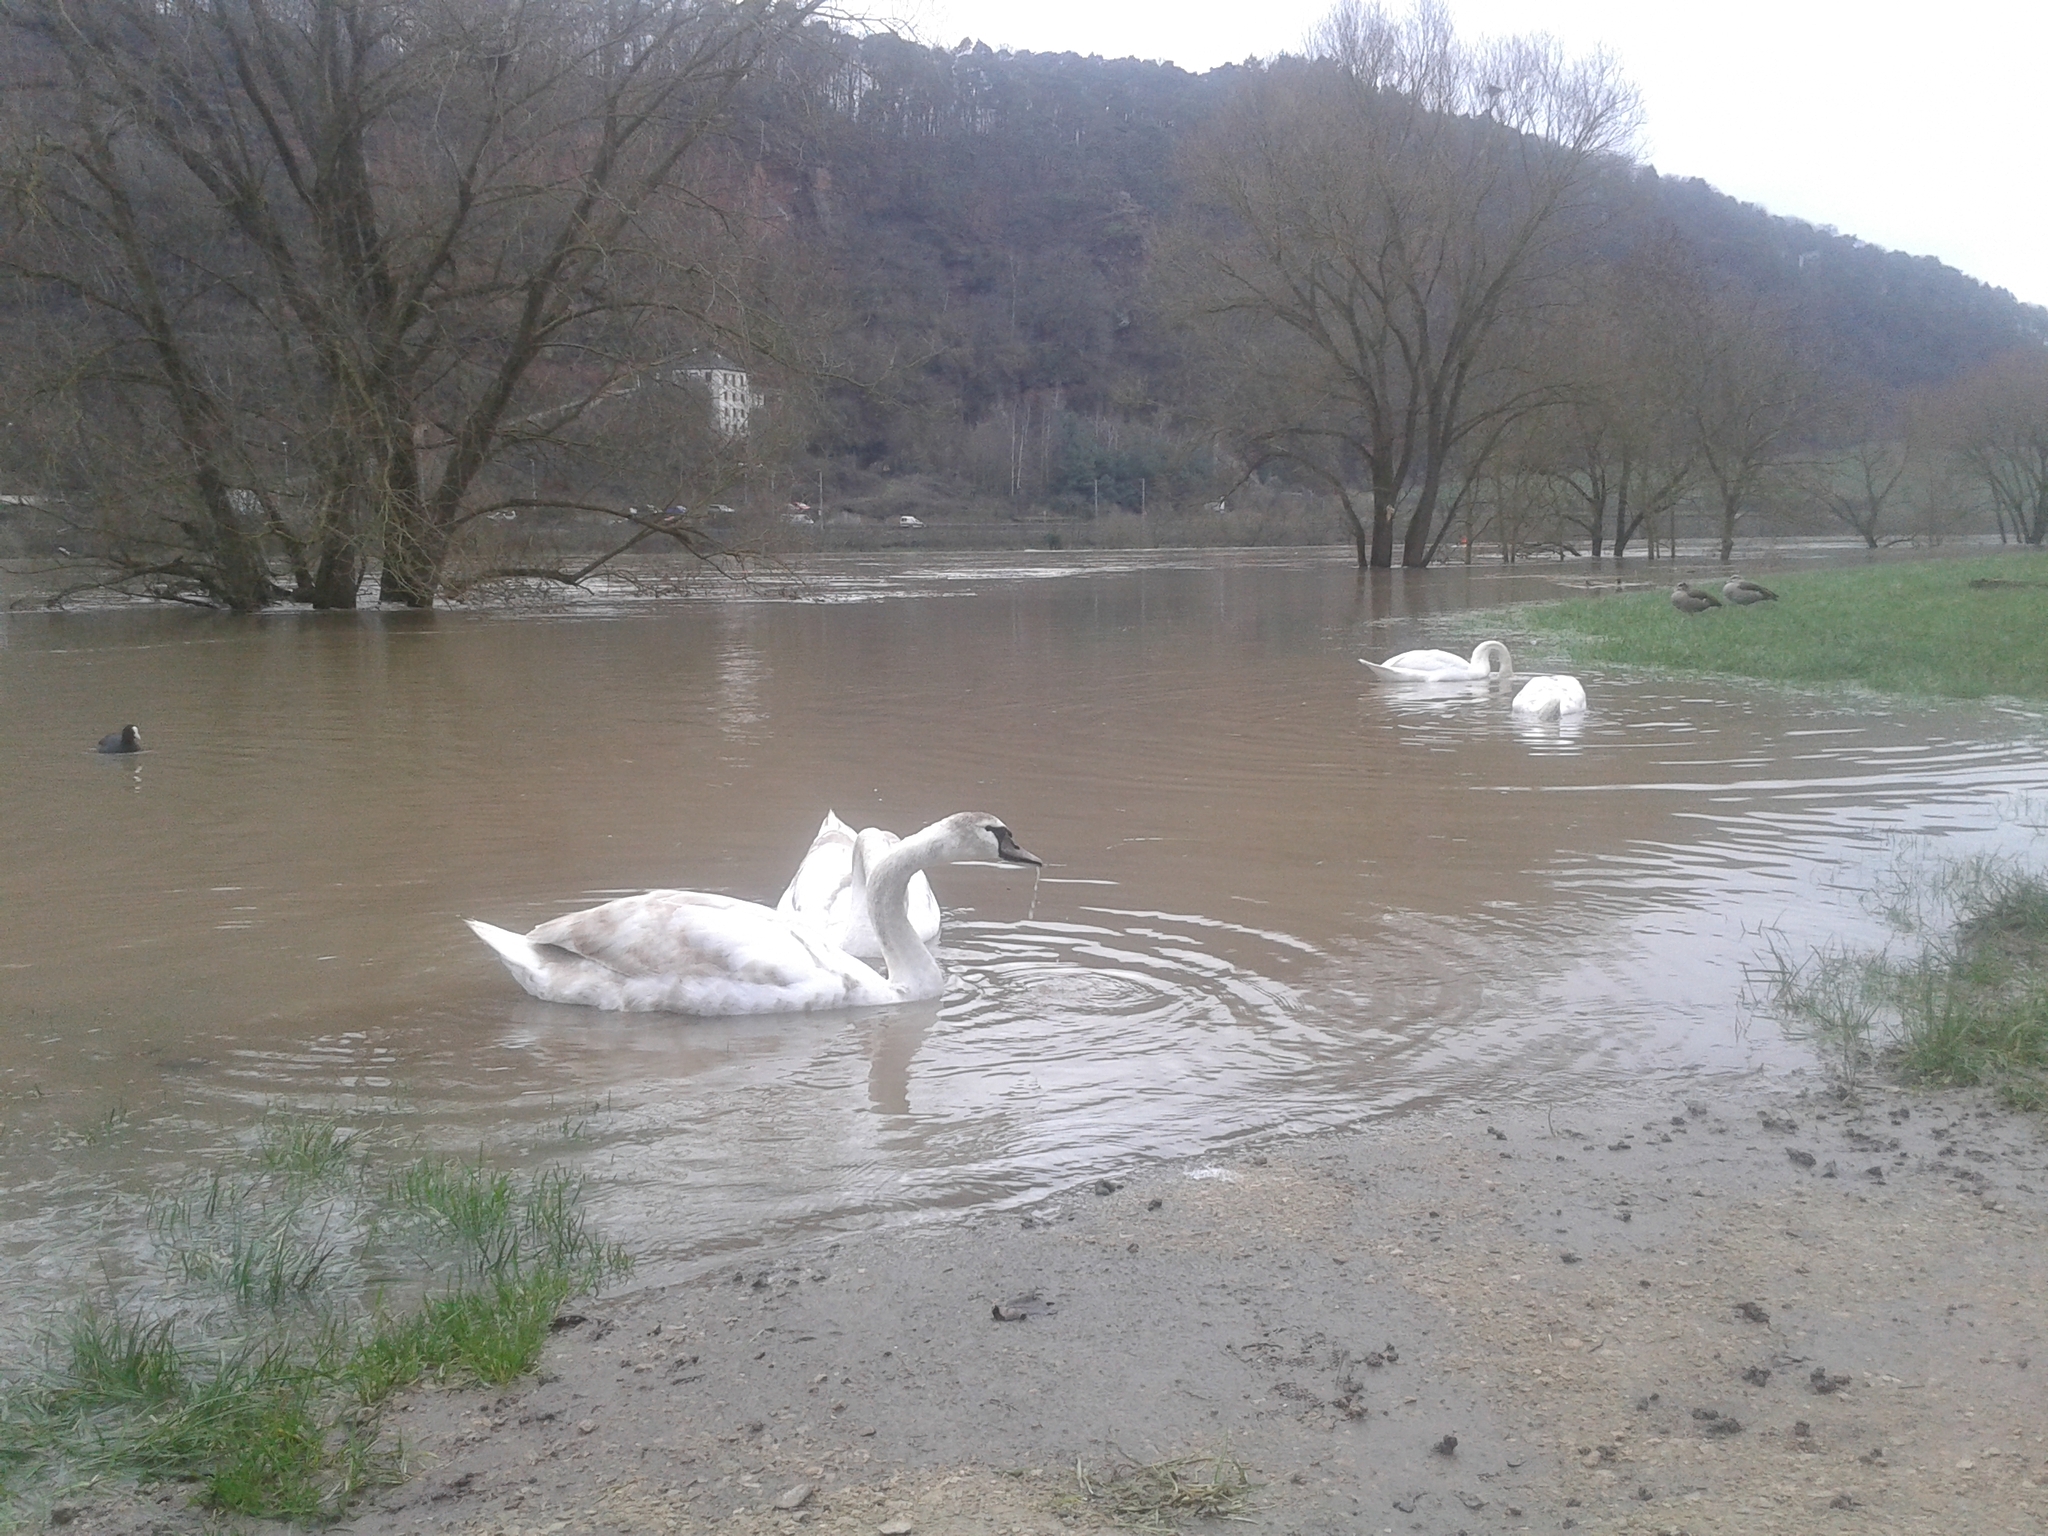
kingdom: Animalia
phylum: Chordata
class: Aves
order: Anseriformes
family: Anatidae
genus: Cygnus
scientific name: Cygnus olor
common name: Mute swan
